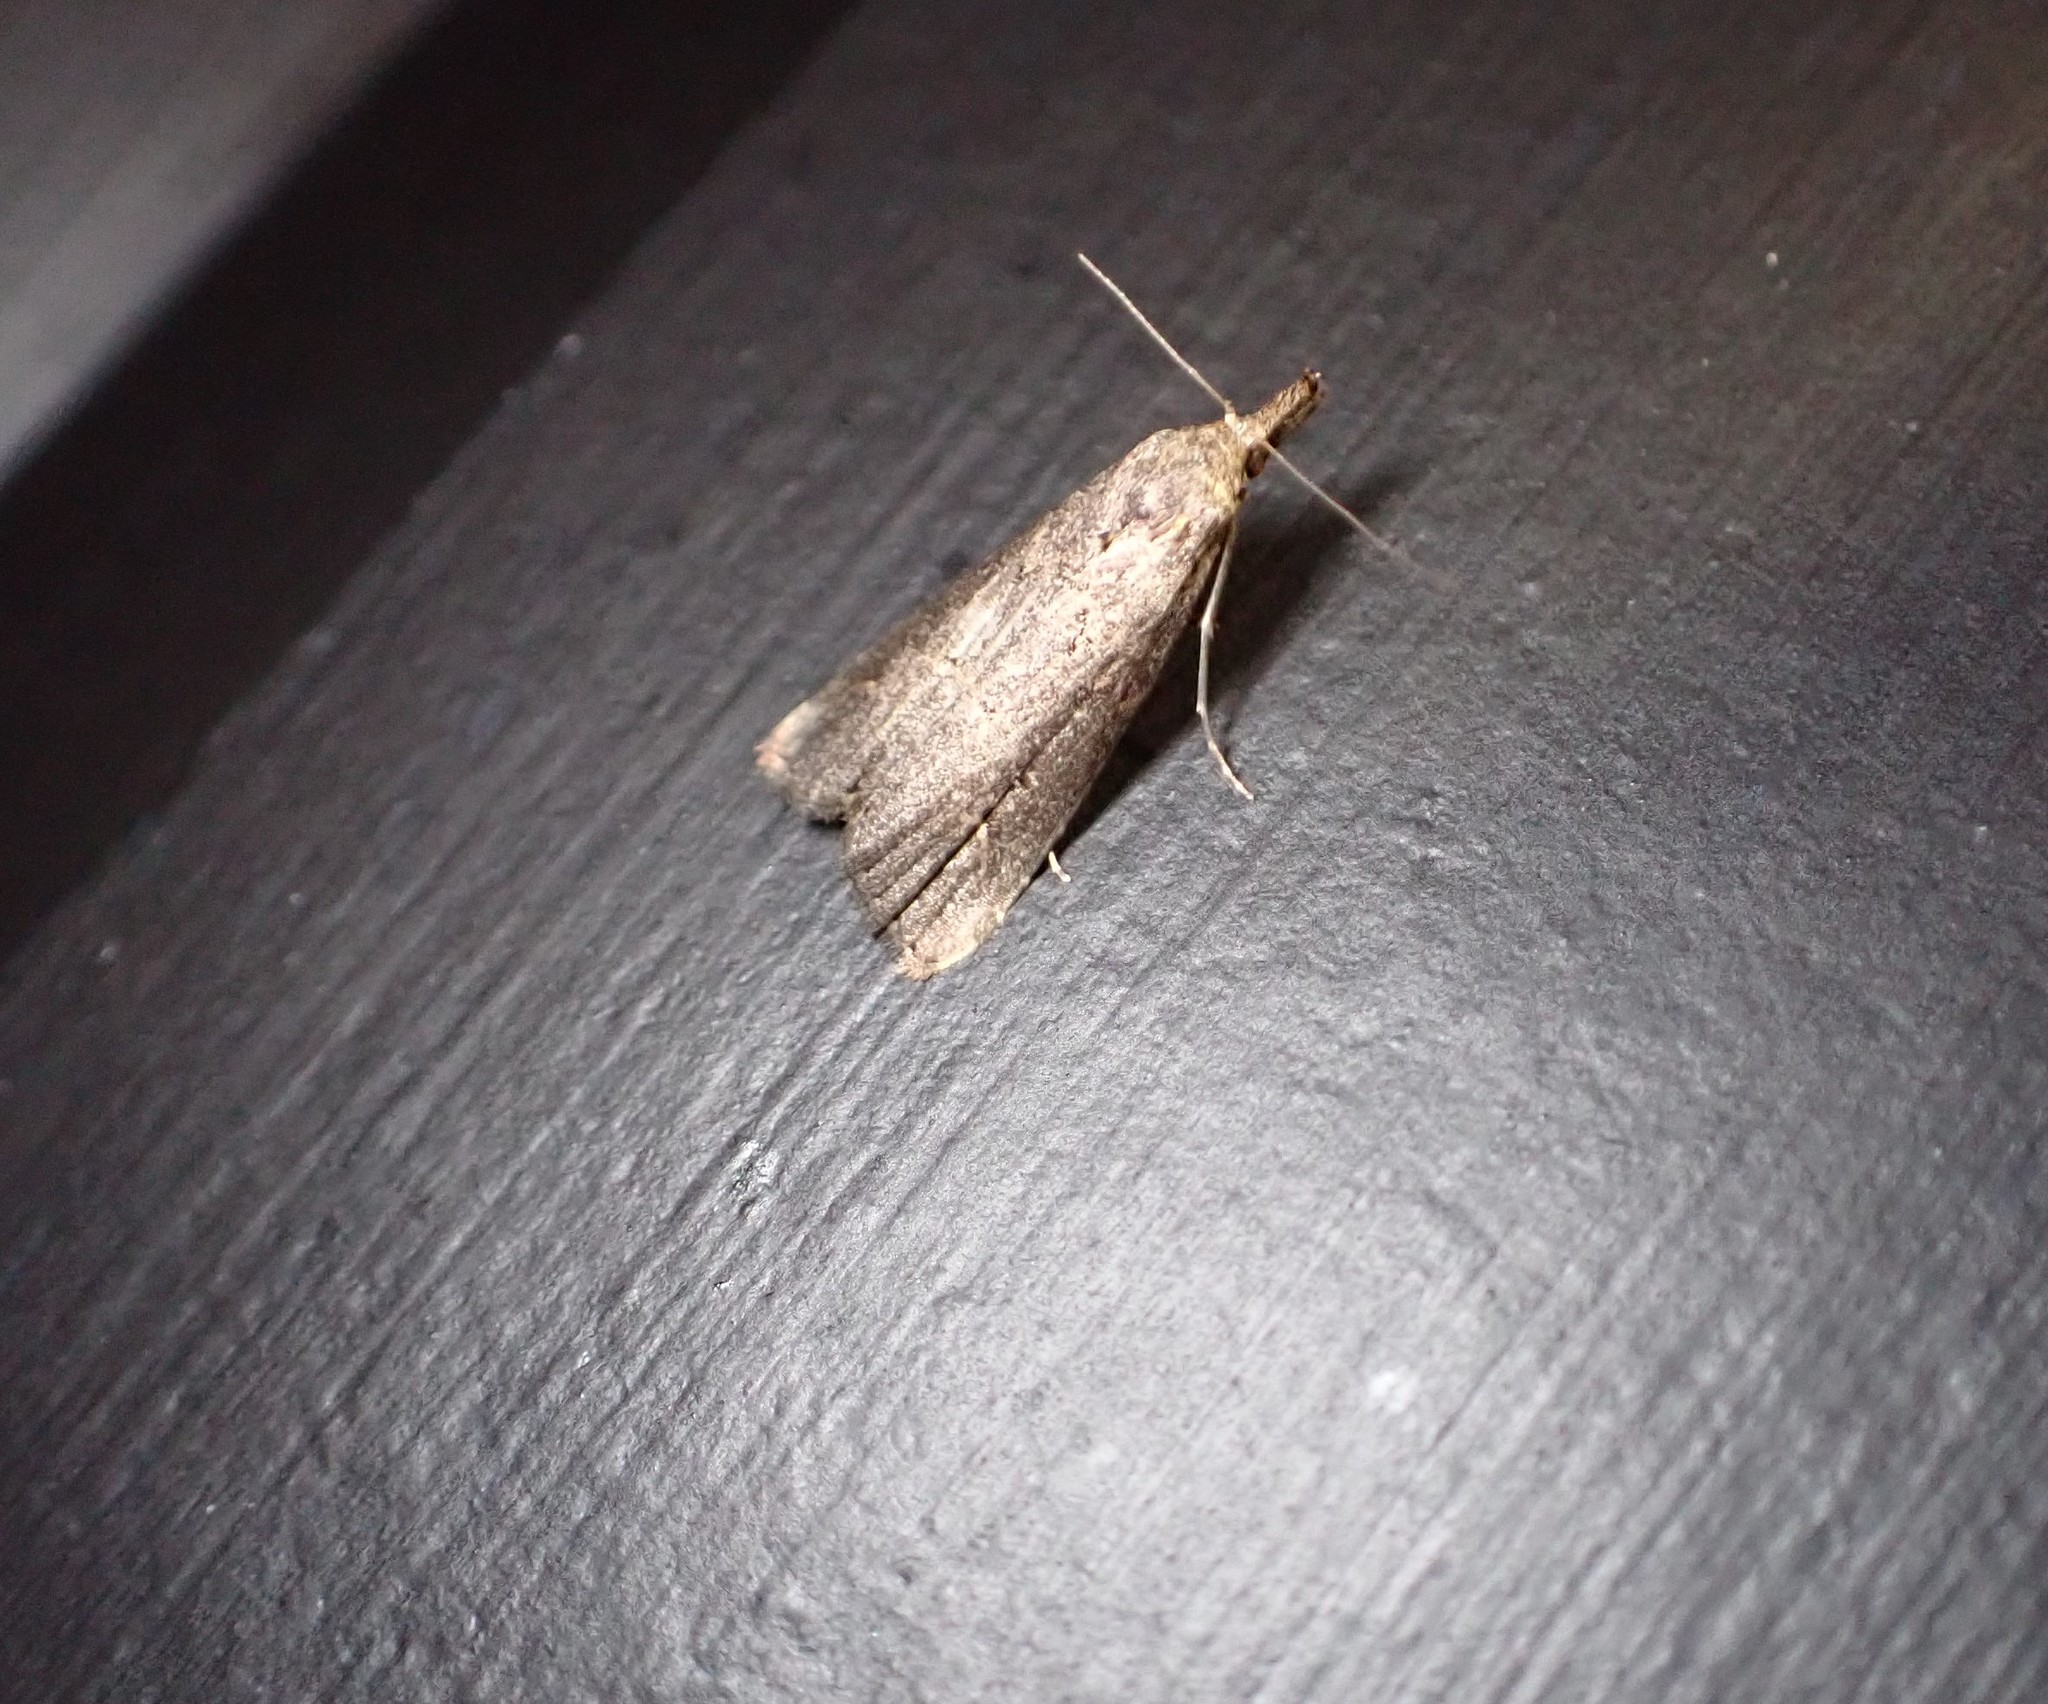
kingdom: Animalia
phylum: Arthropoda
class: Insecta
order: Lepidoptera
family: Erebidae
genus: Schrankia
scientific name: Schrankia costaestrigalis
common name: Pinion-streaked snout
